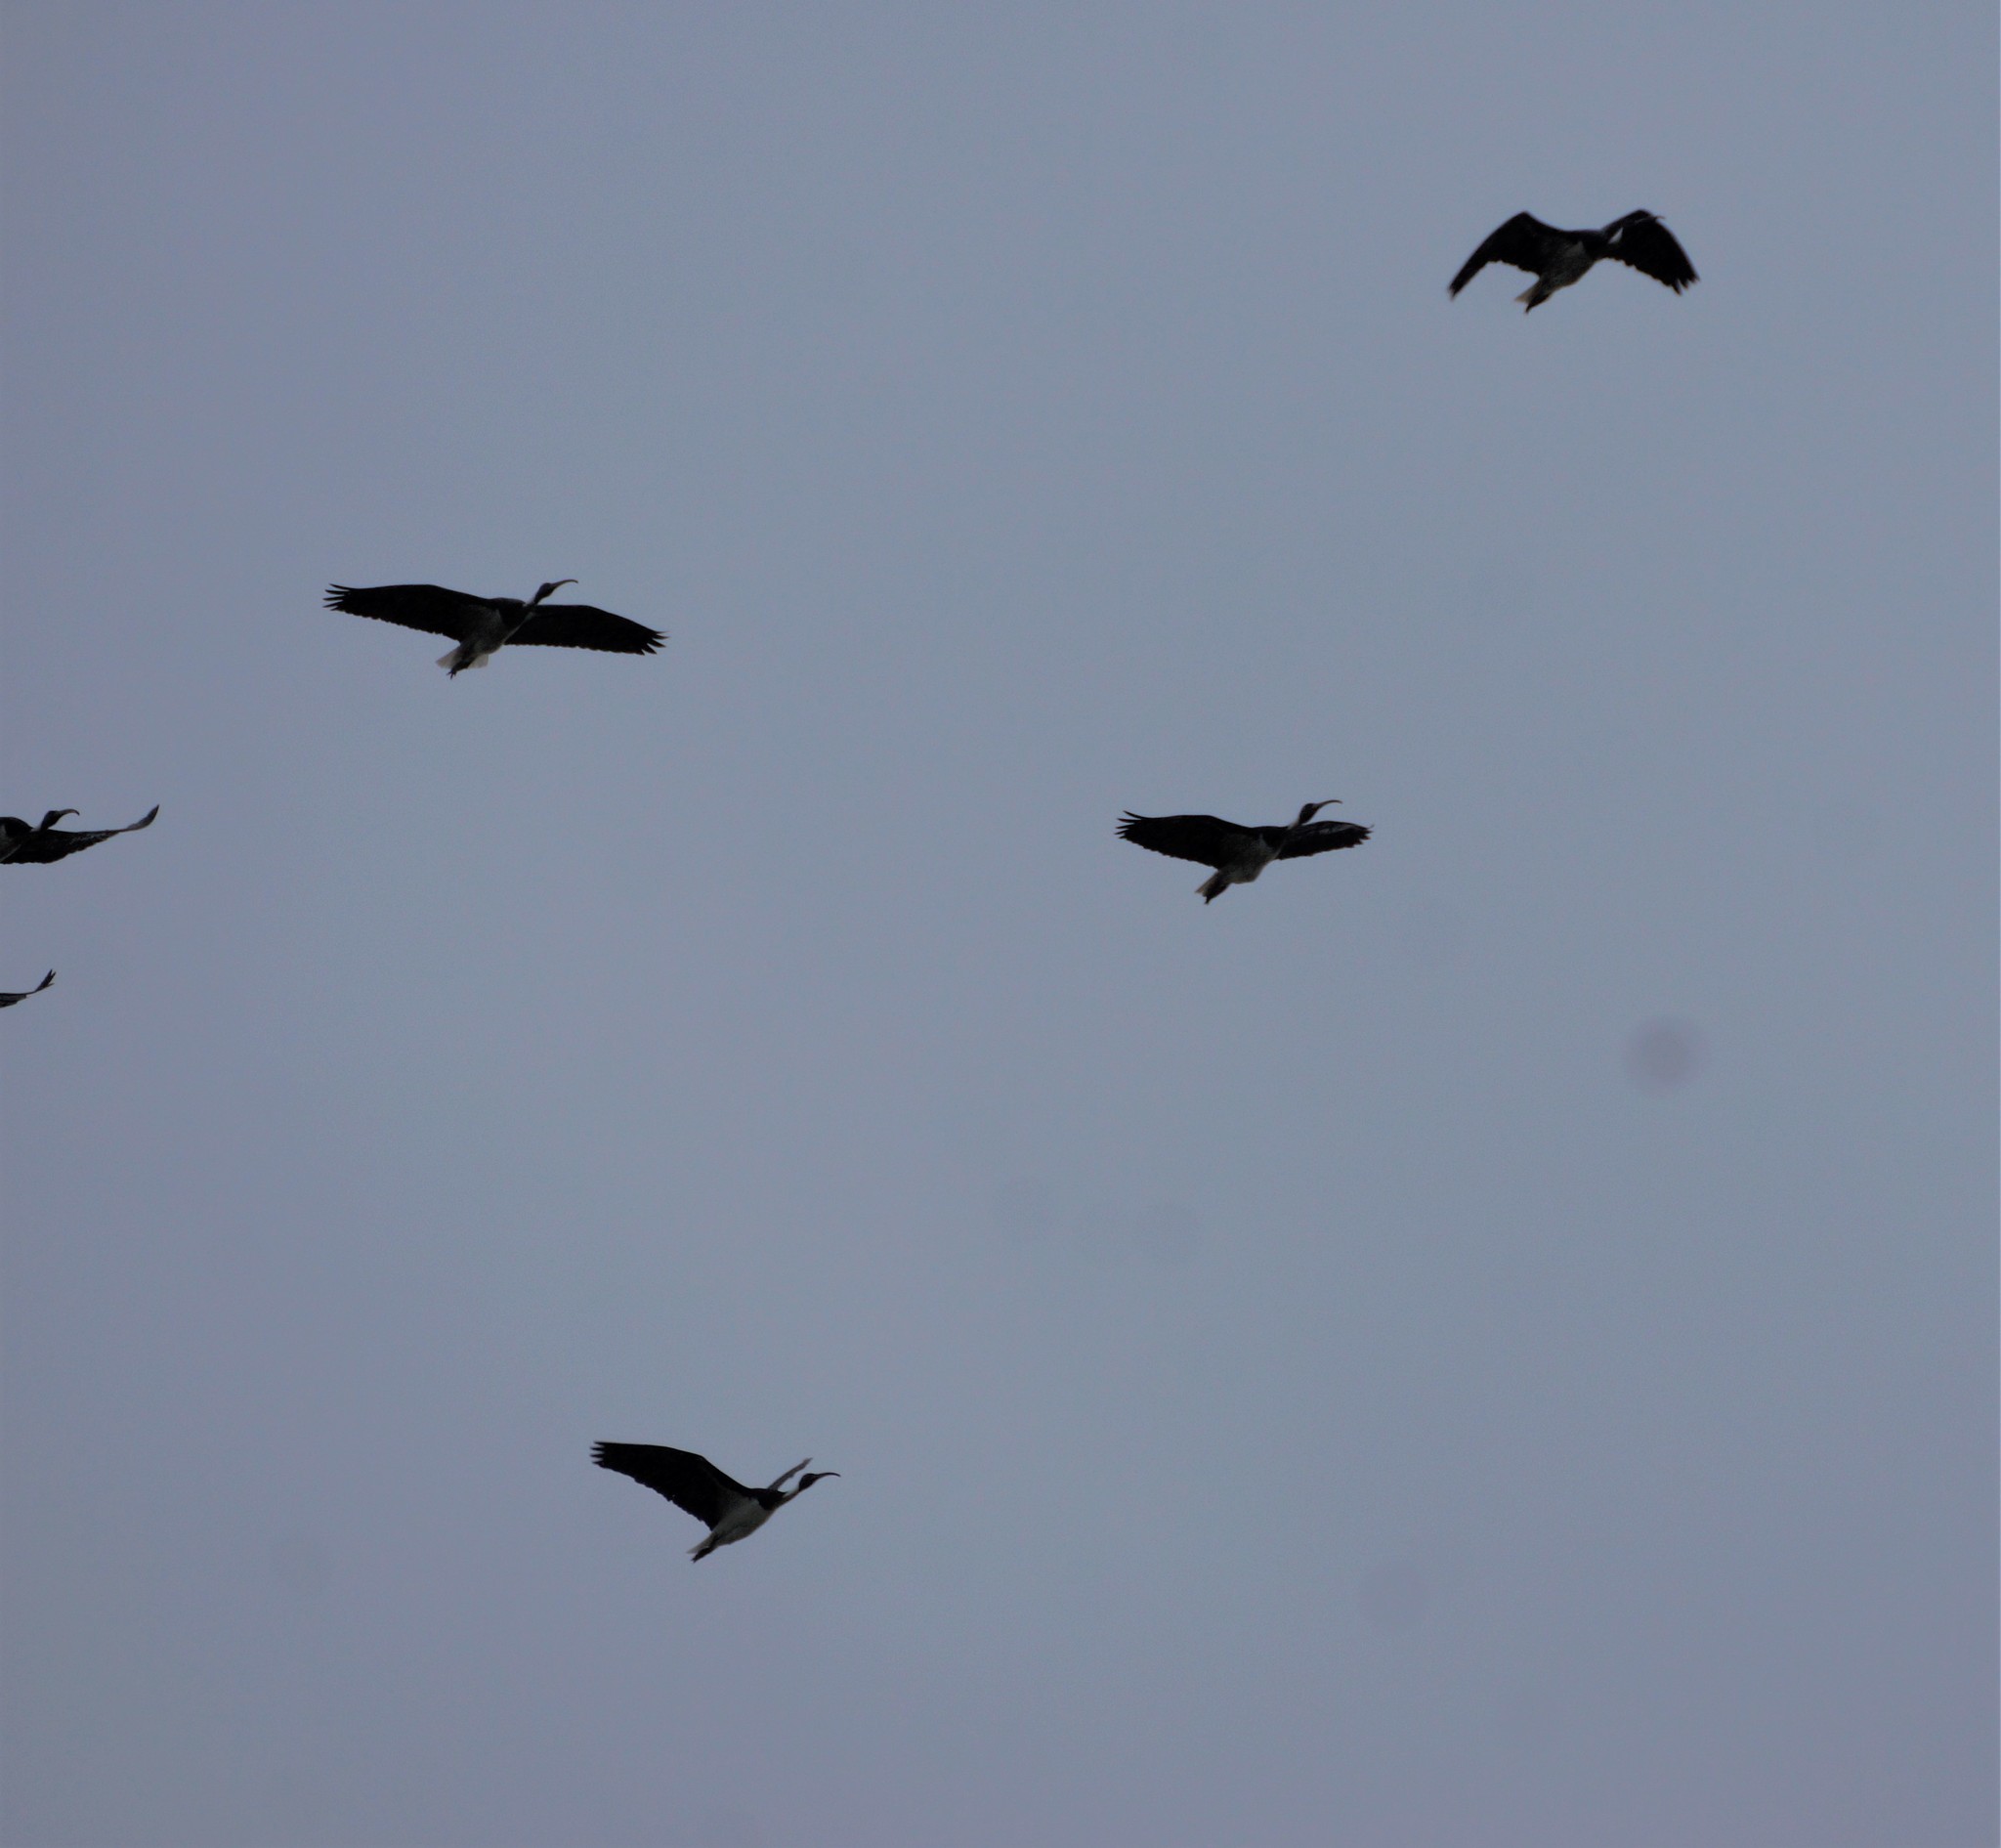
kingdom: Animalia
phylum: Chordata
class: Aves
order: Pelecaniformes
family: Threskiornithidae
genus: Threskiornis
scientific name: Threskiornis spinicollis
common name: Straw-necked ibis
